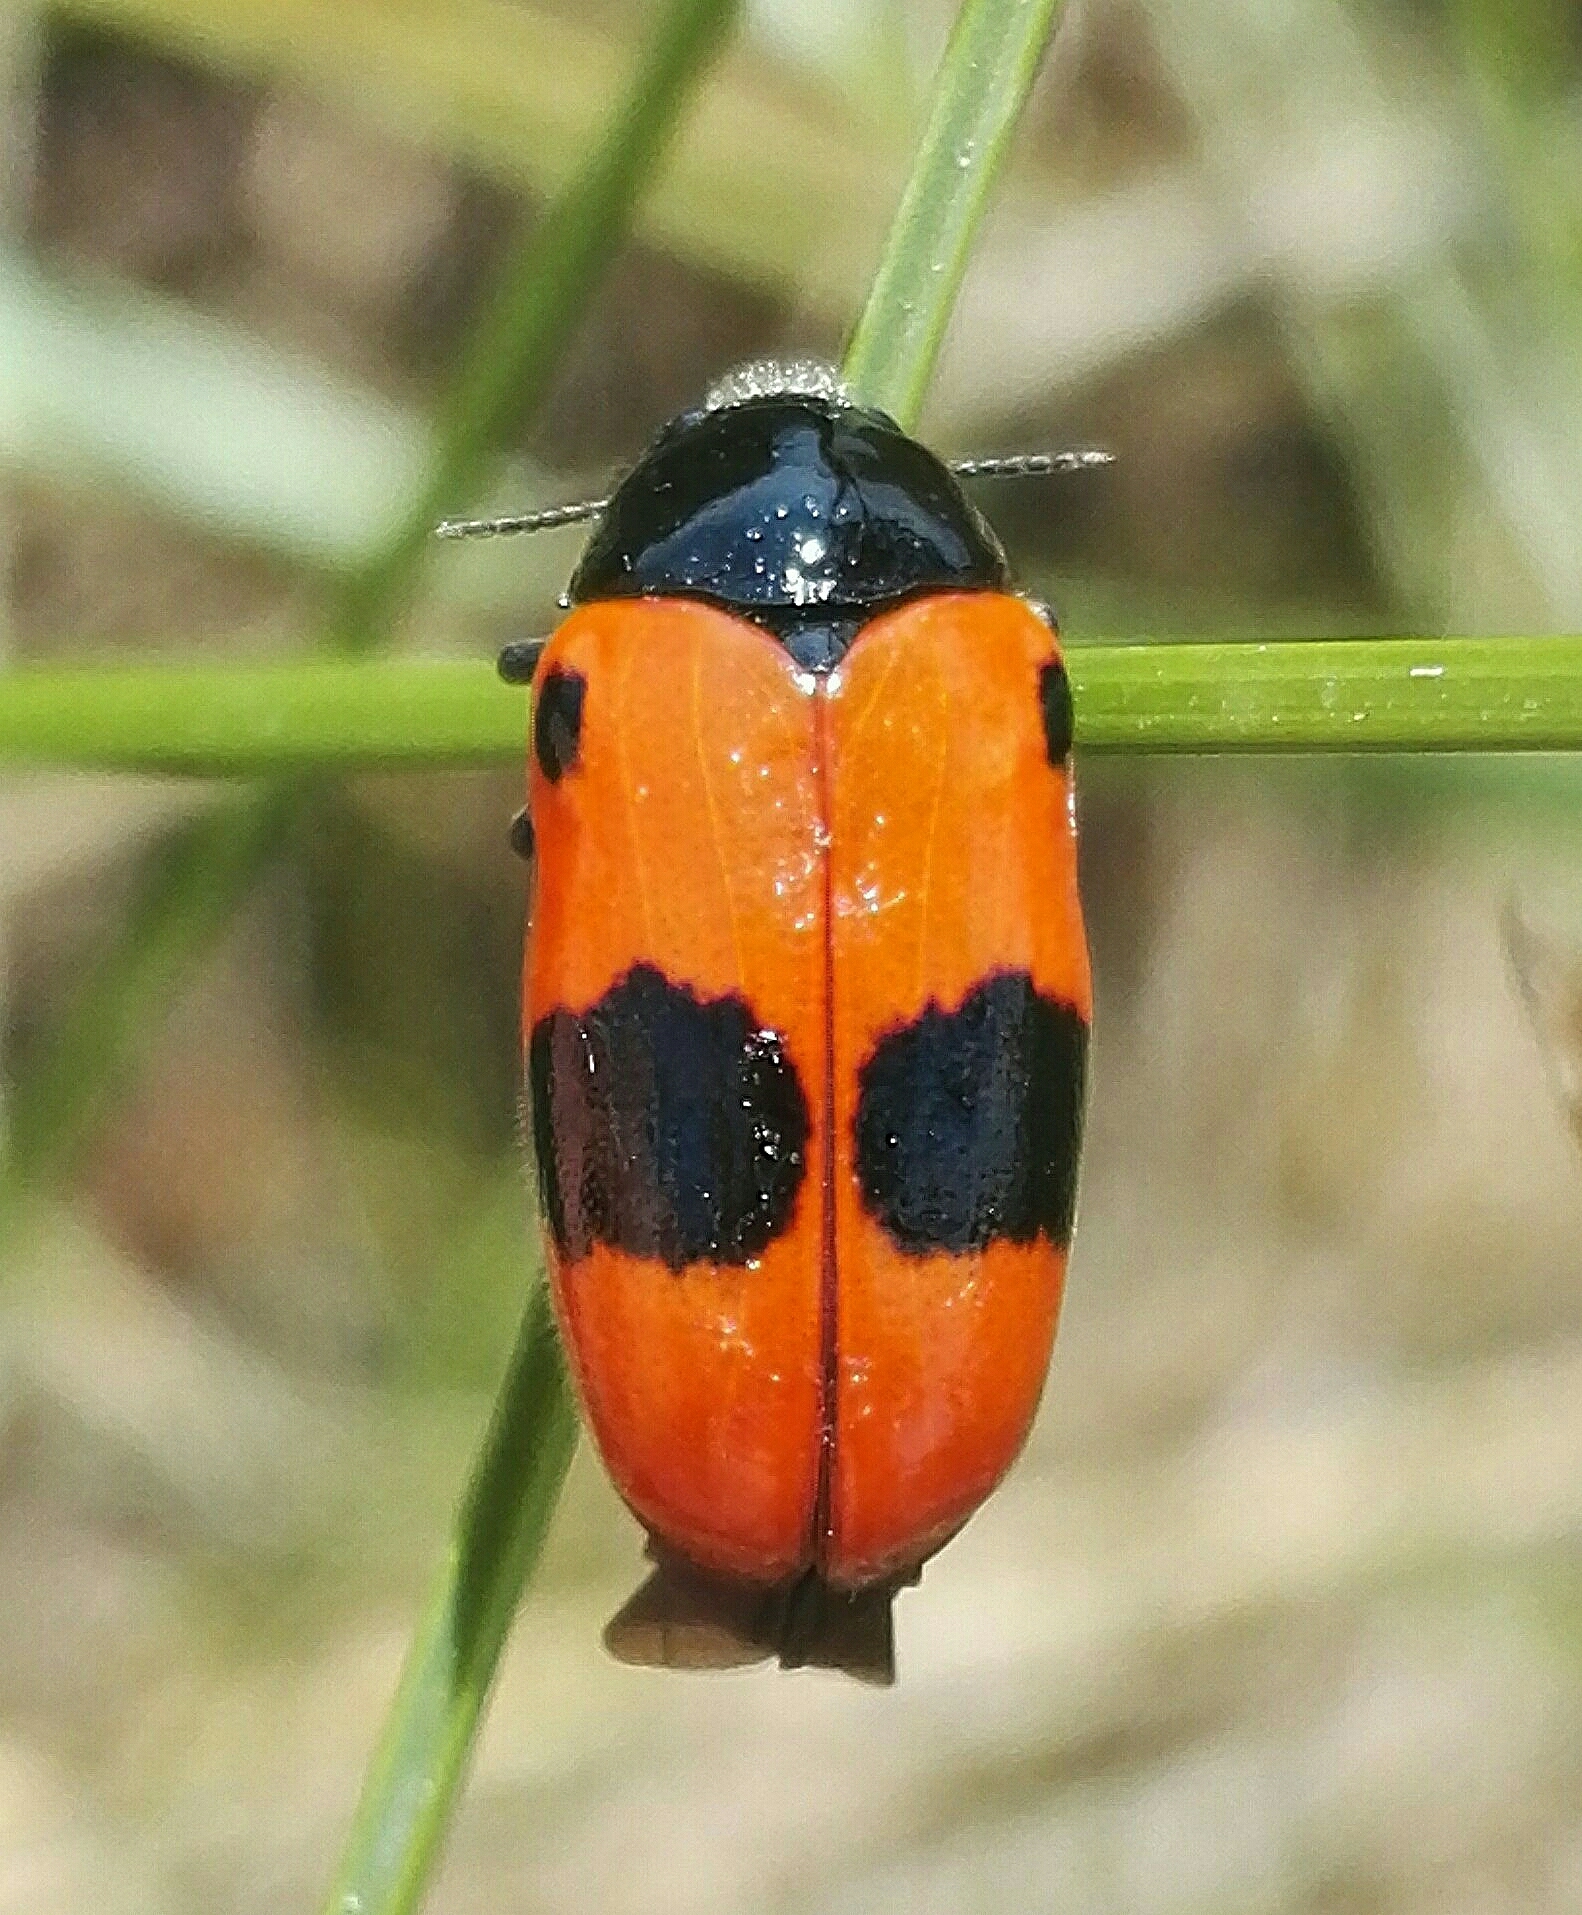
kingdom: Animalia
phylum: Arthropoda
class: Insecta
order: Coleoptera
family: Chrysomelidae
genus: Clytra
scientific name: Clytra laeviuscula
